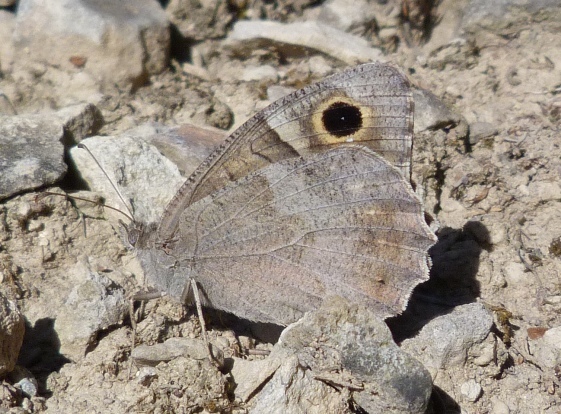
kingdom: Animalia
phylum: Arthropoda
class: Insecta
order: Lepidoptera
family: Nymphalidae
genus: Hipparchia
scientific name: Hipparchia statilinus
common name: Tree grayling
